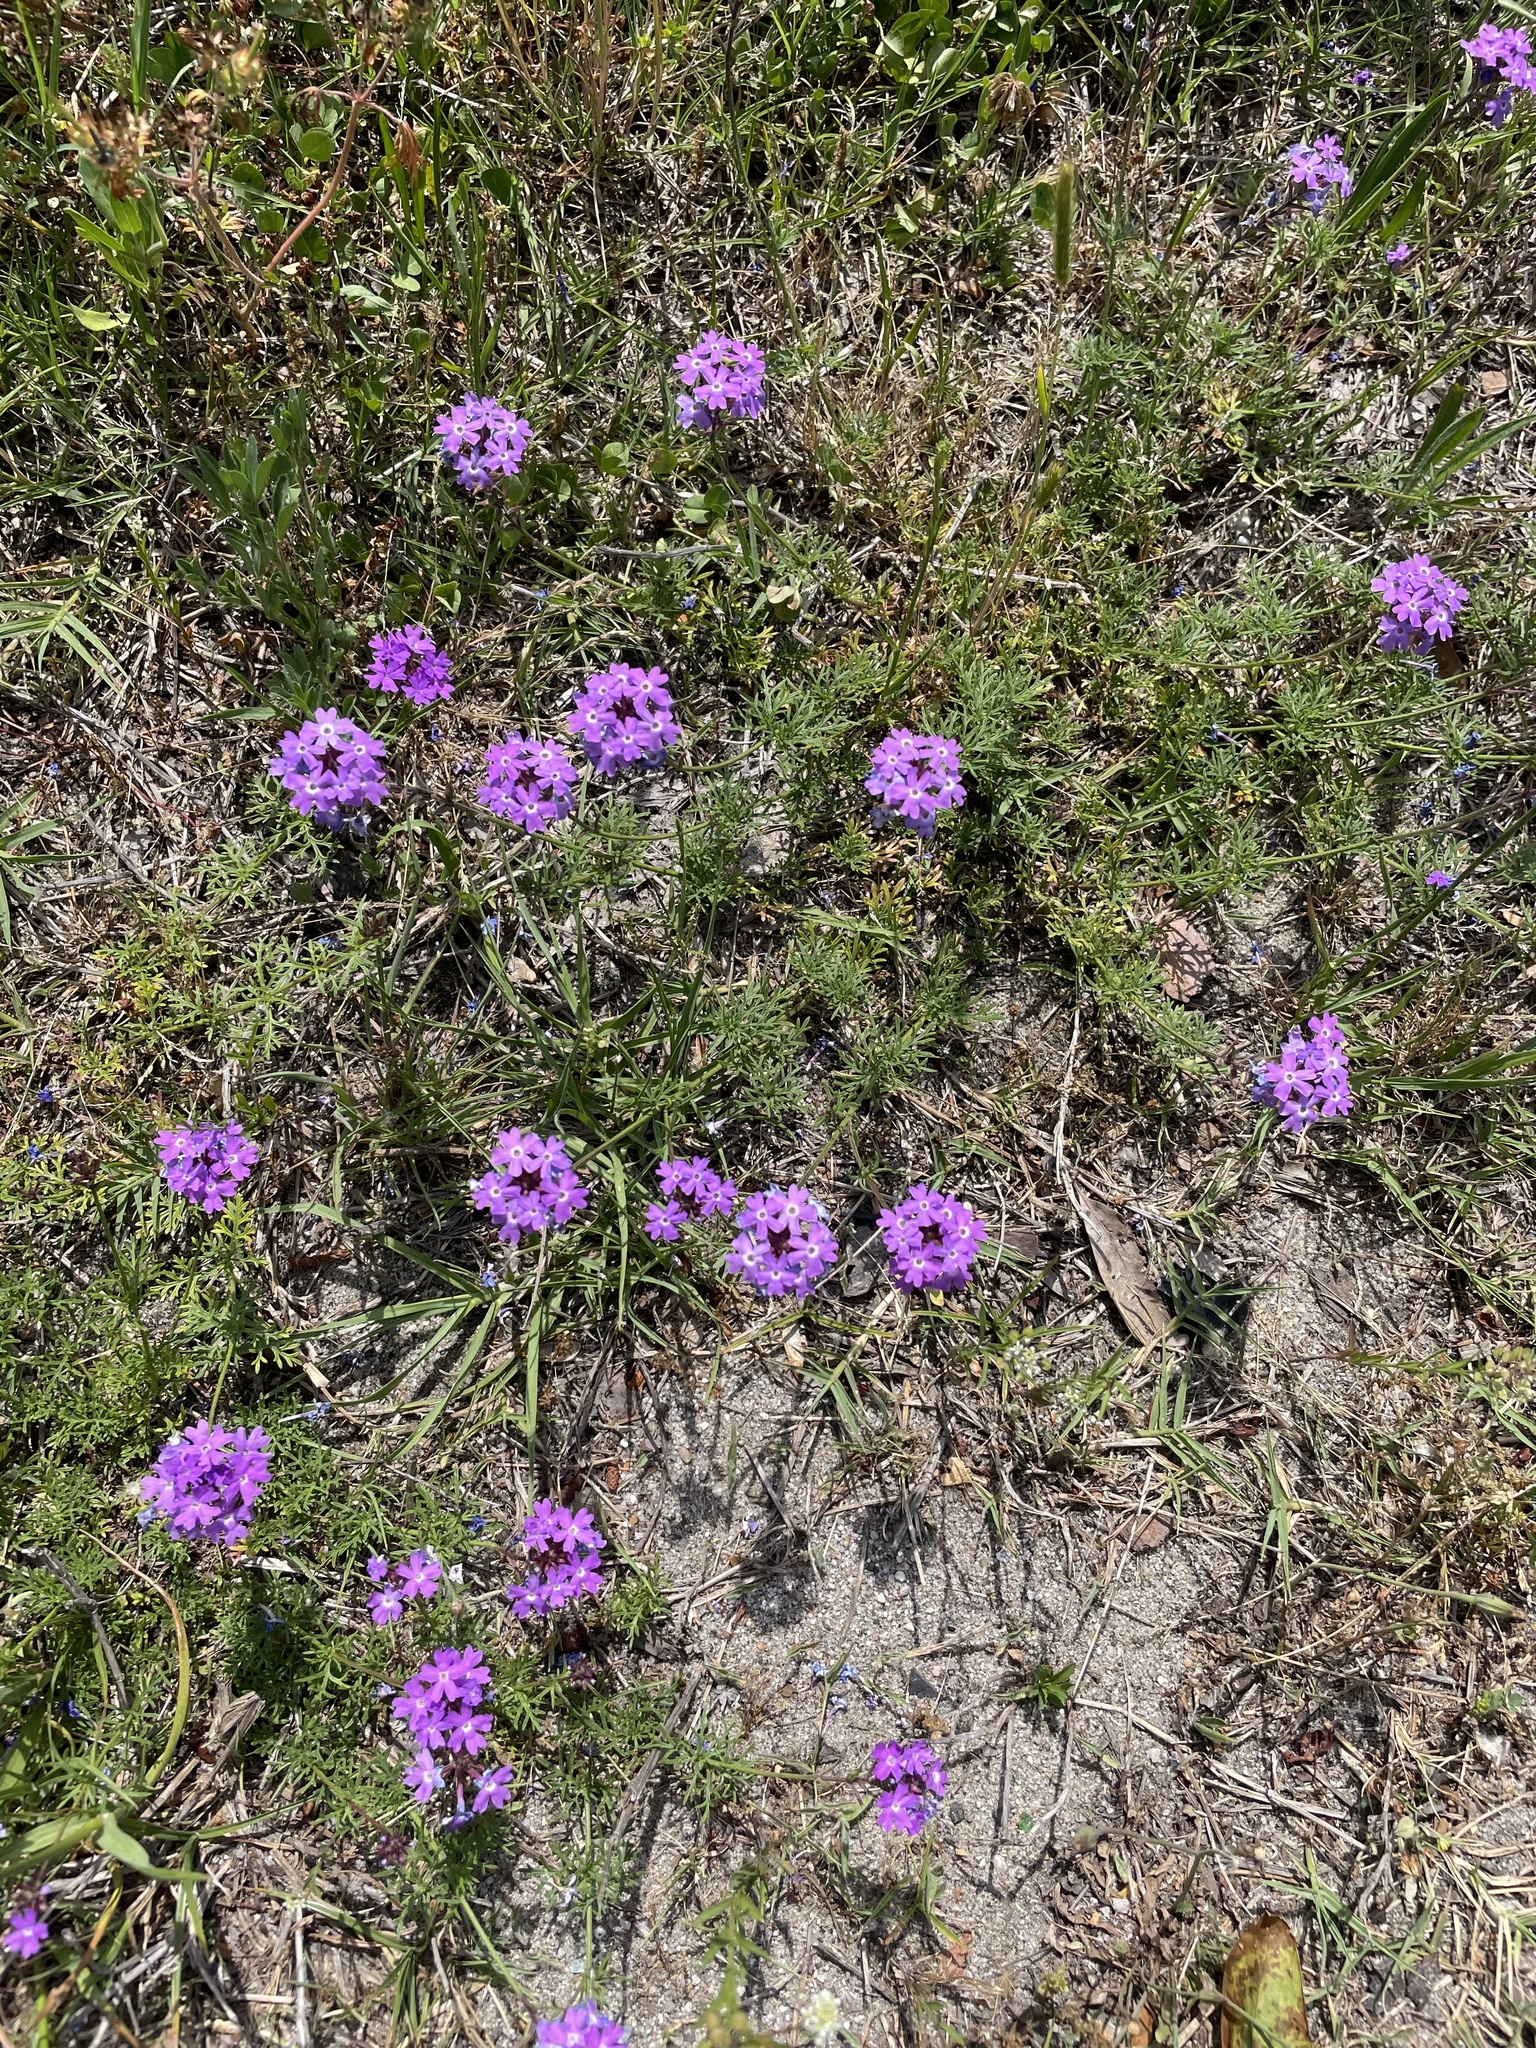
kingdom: Plantae
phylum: Tracheophyta
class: Magnoliopsida
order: Lamiales
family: Verbenaceae
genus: Verbena
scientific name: Verbena aristigera
